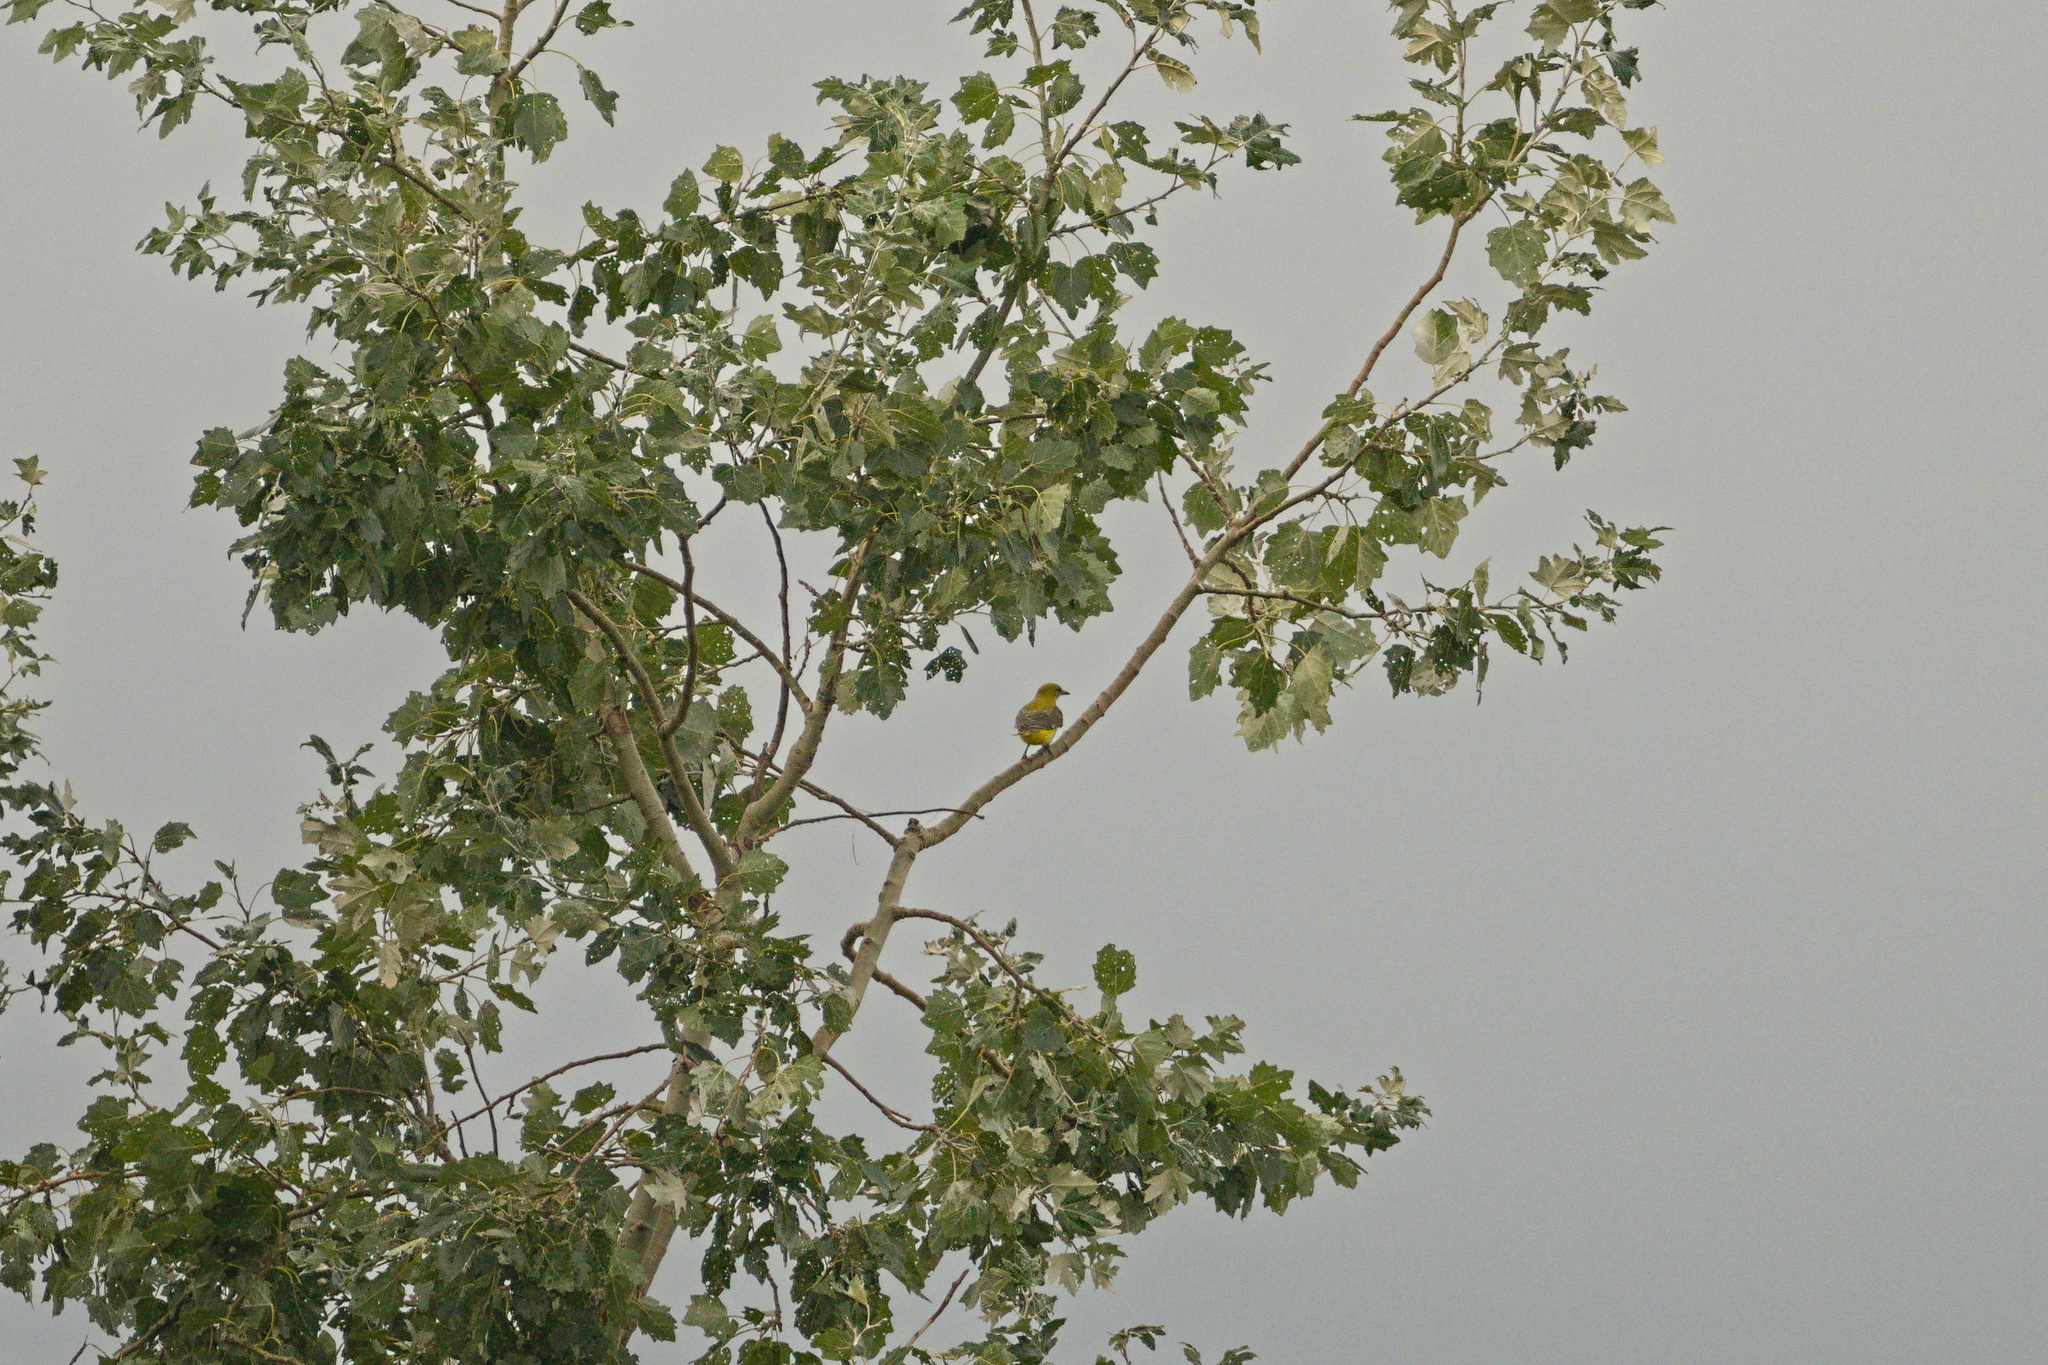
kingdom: Animalia
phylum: Chordata
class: Aves
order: Passeriformes
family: Oriolidae
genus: Oriolus
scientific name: Oriolus oriolus
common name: Eurasian golden oriole
